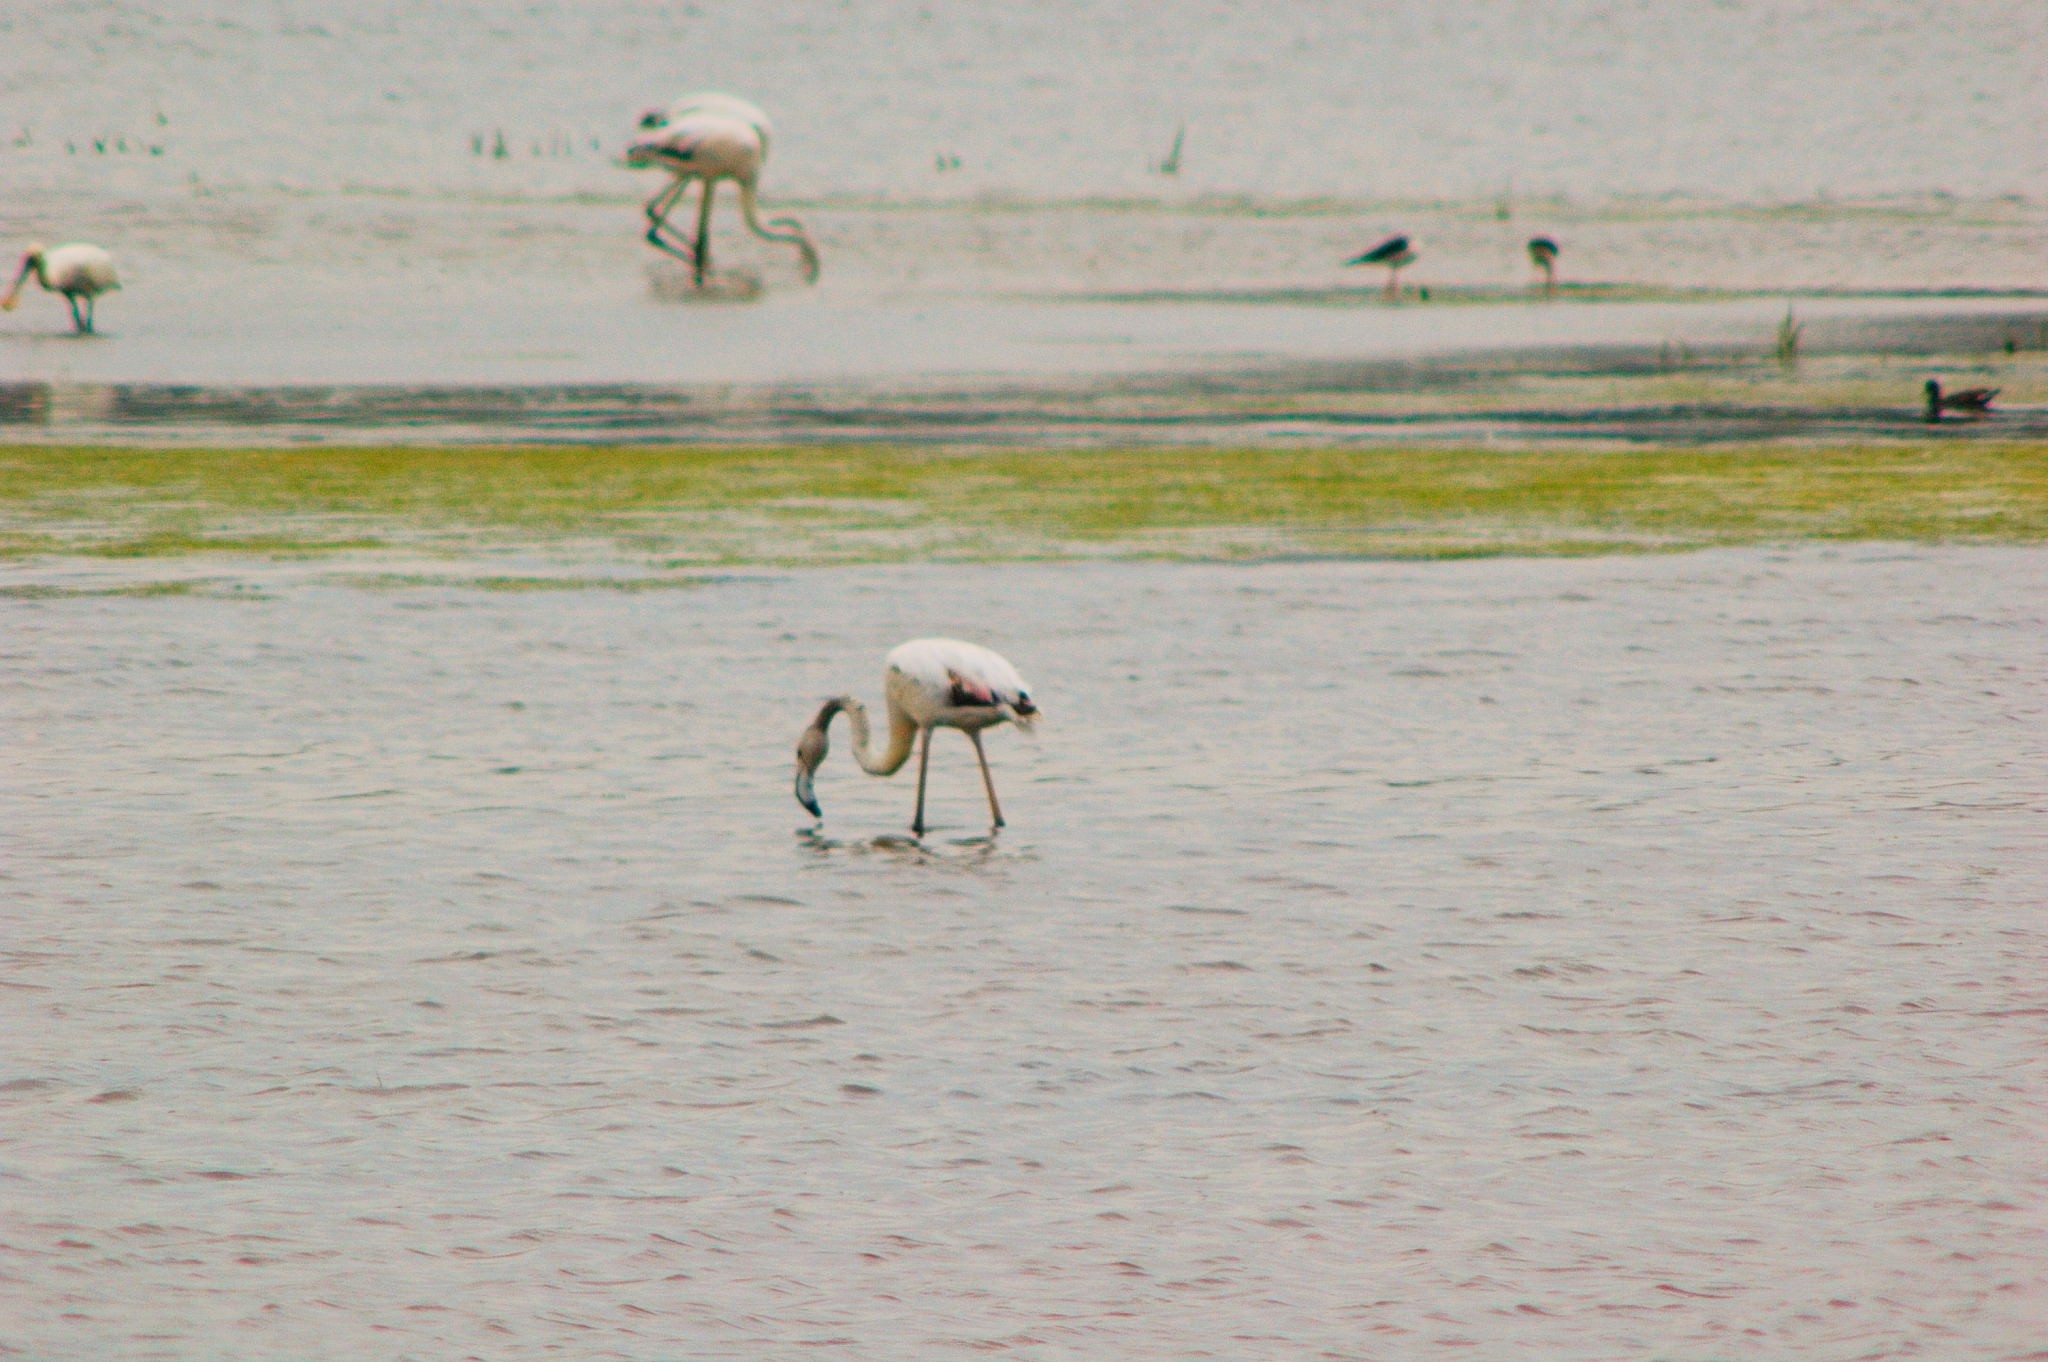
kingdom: Animalia
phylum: Chordata
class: Aves
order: Phoenicopteriformes
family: Phoenicopteridae
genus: Phoenicopterus
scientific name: Phoenicopterus roseus
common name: Greater flamingo
